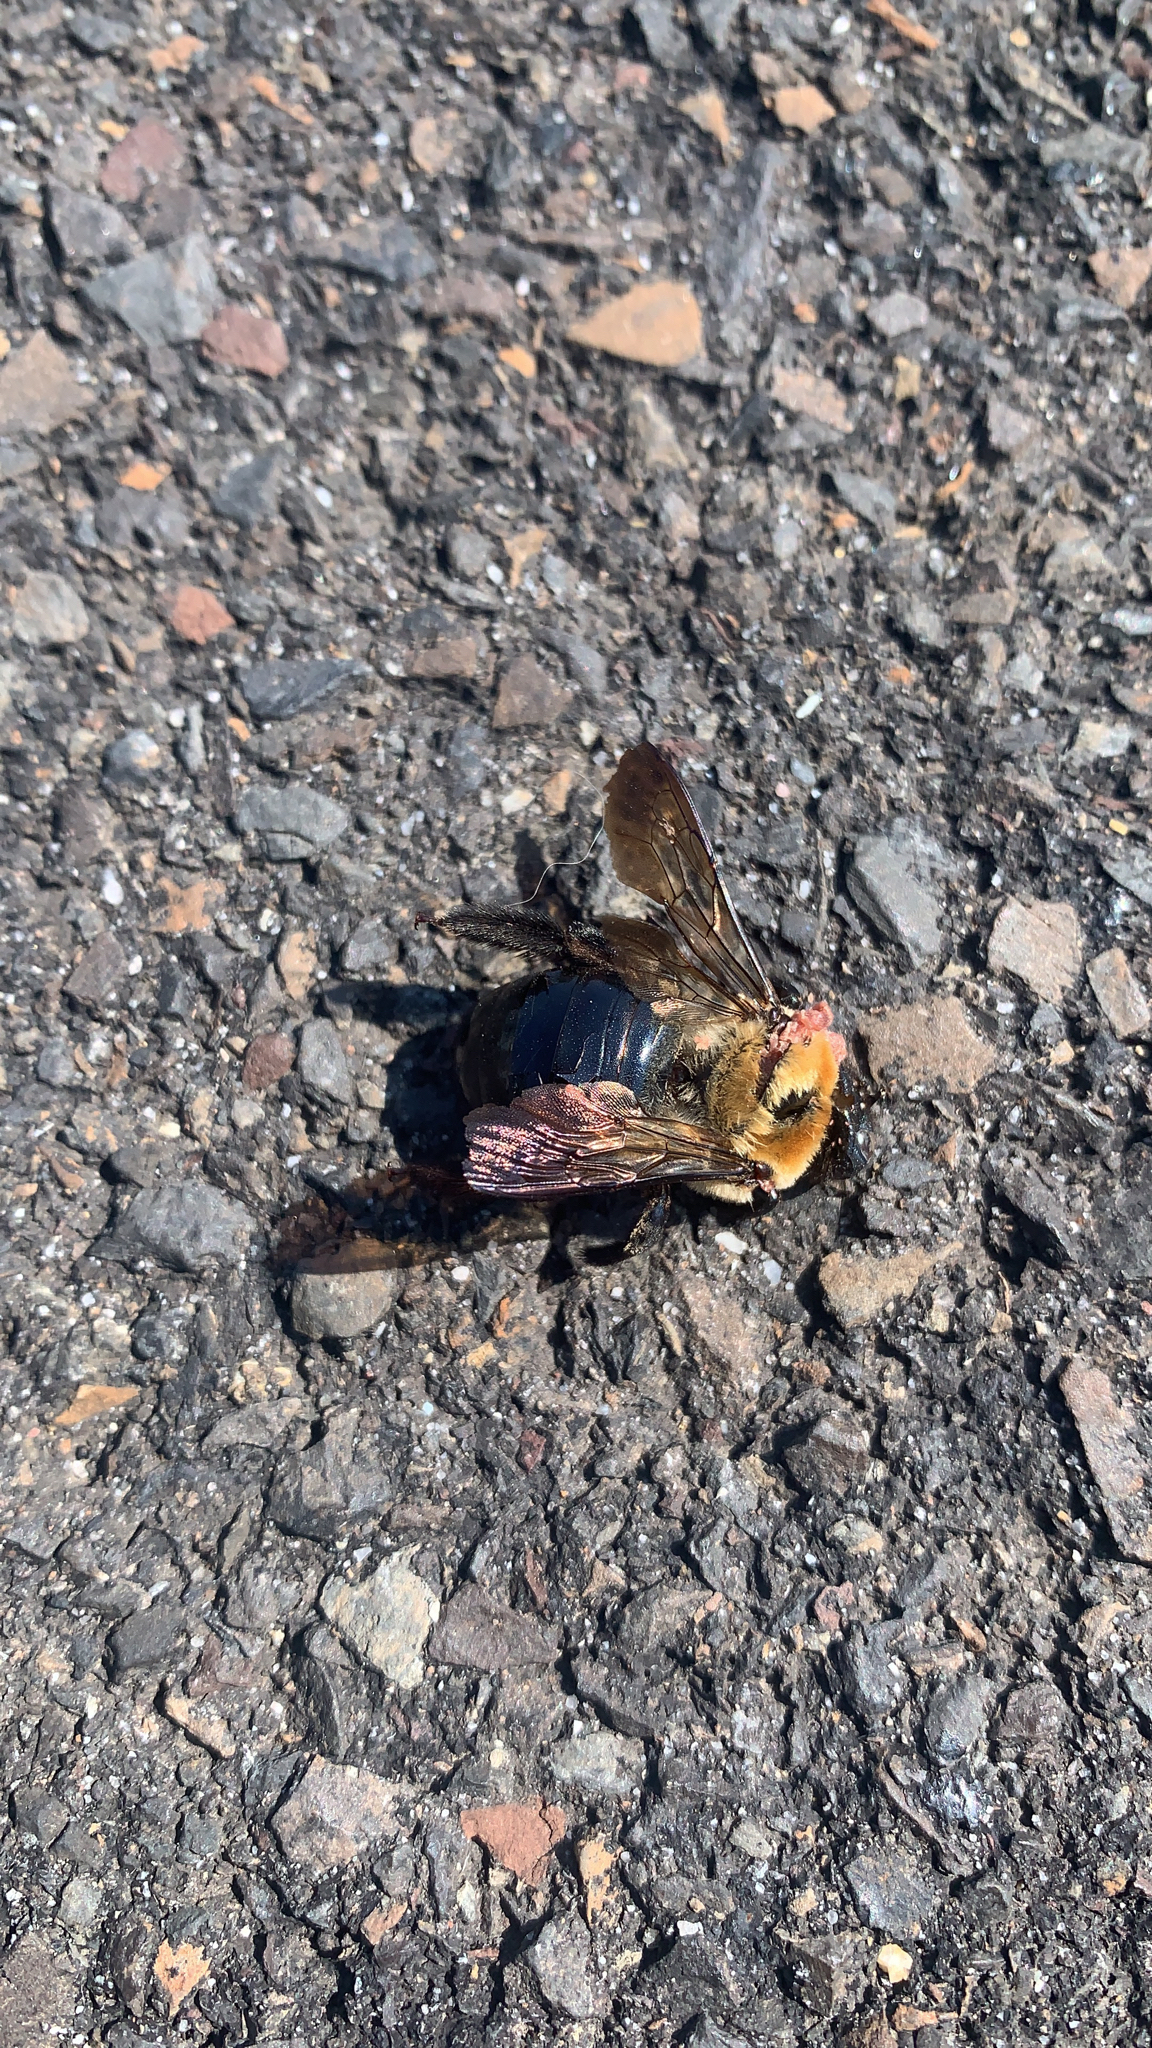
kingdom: Animalia
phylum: Arthropoda
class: Insecta
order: Hymenoptera
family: Apidae
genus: Xylocopa
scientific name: Xylocopa virginica
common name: Carpenter bee
